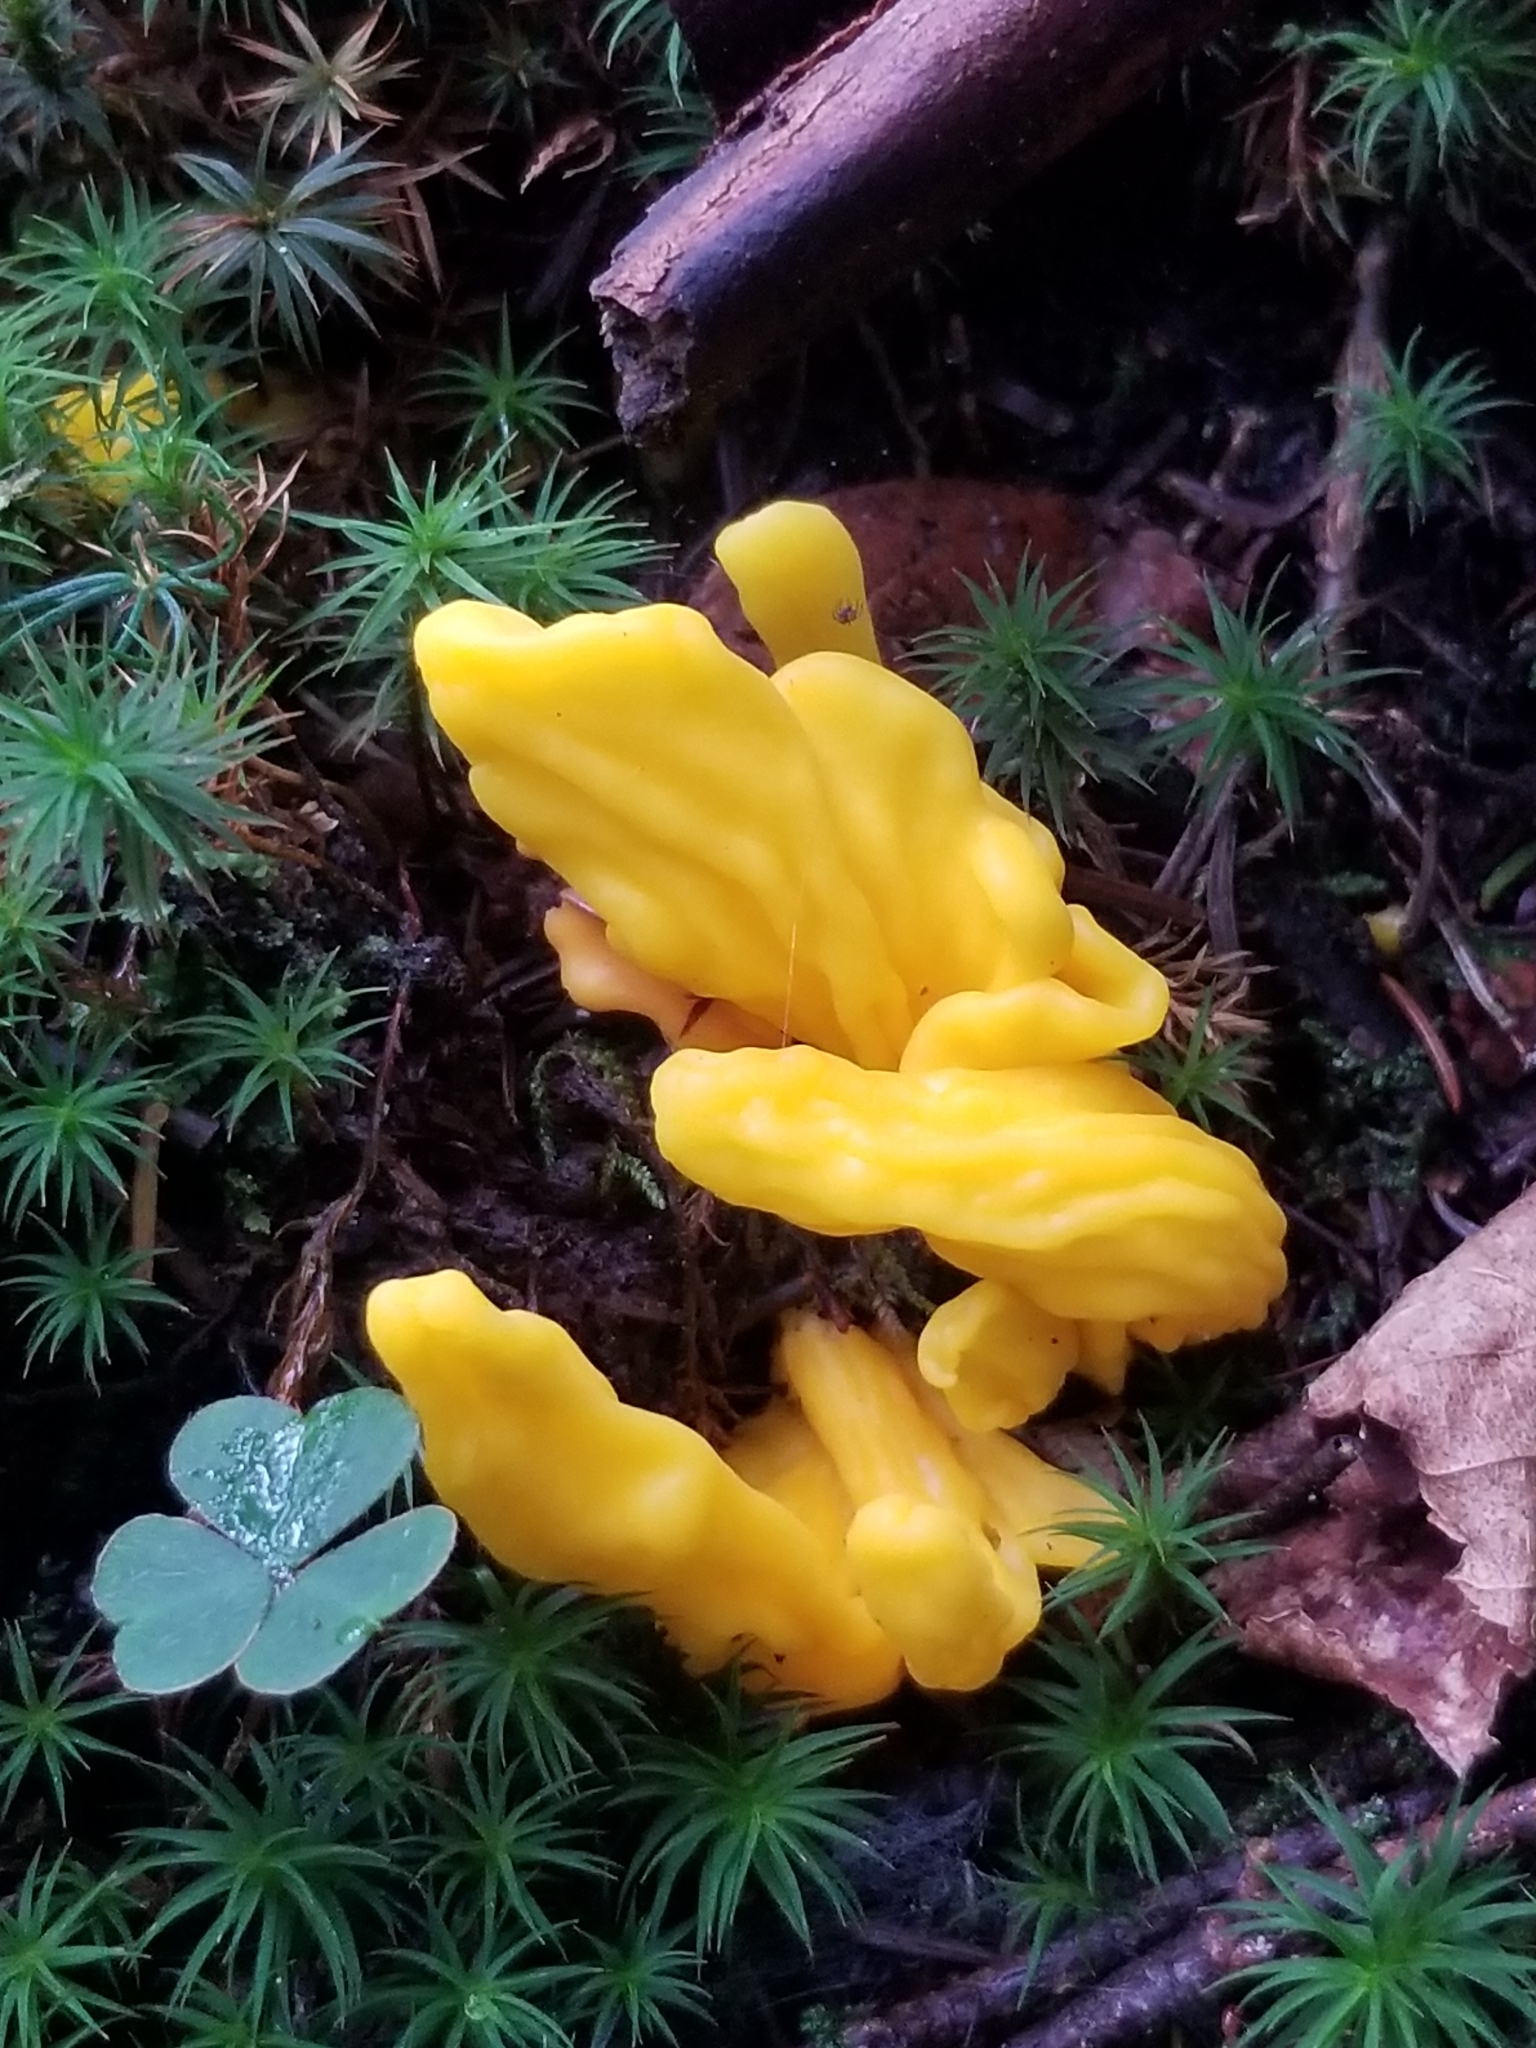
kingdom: Fungi
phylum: Ascomycota
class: Neolectomycetes
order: Neolectales
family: Neolectaceae
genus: Neolecta
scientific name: Neolecta irregularis
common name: Irregular earth tongue
